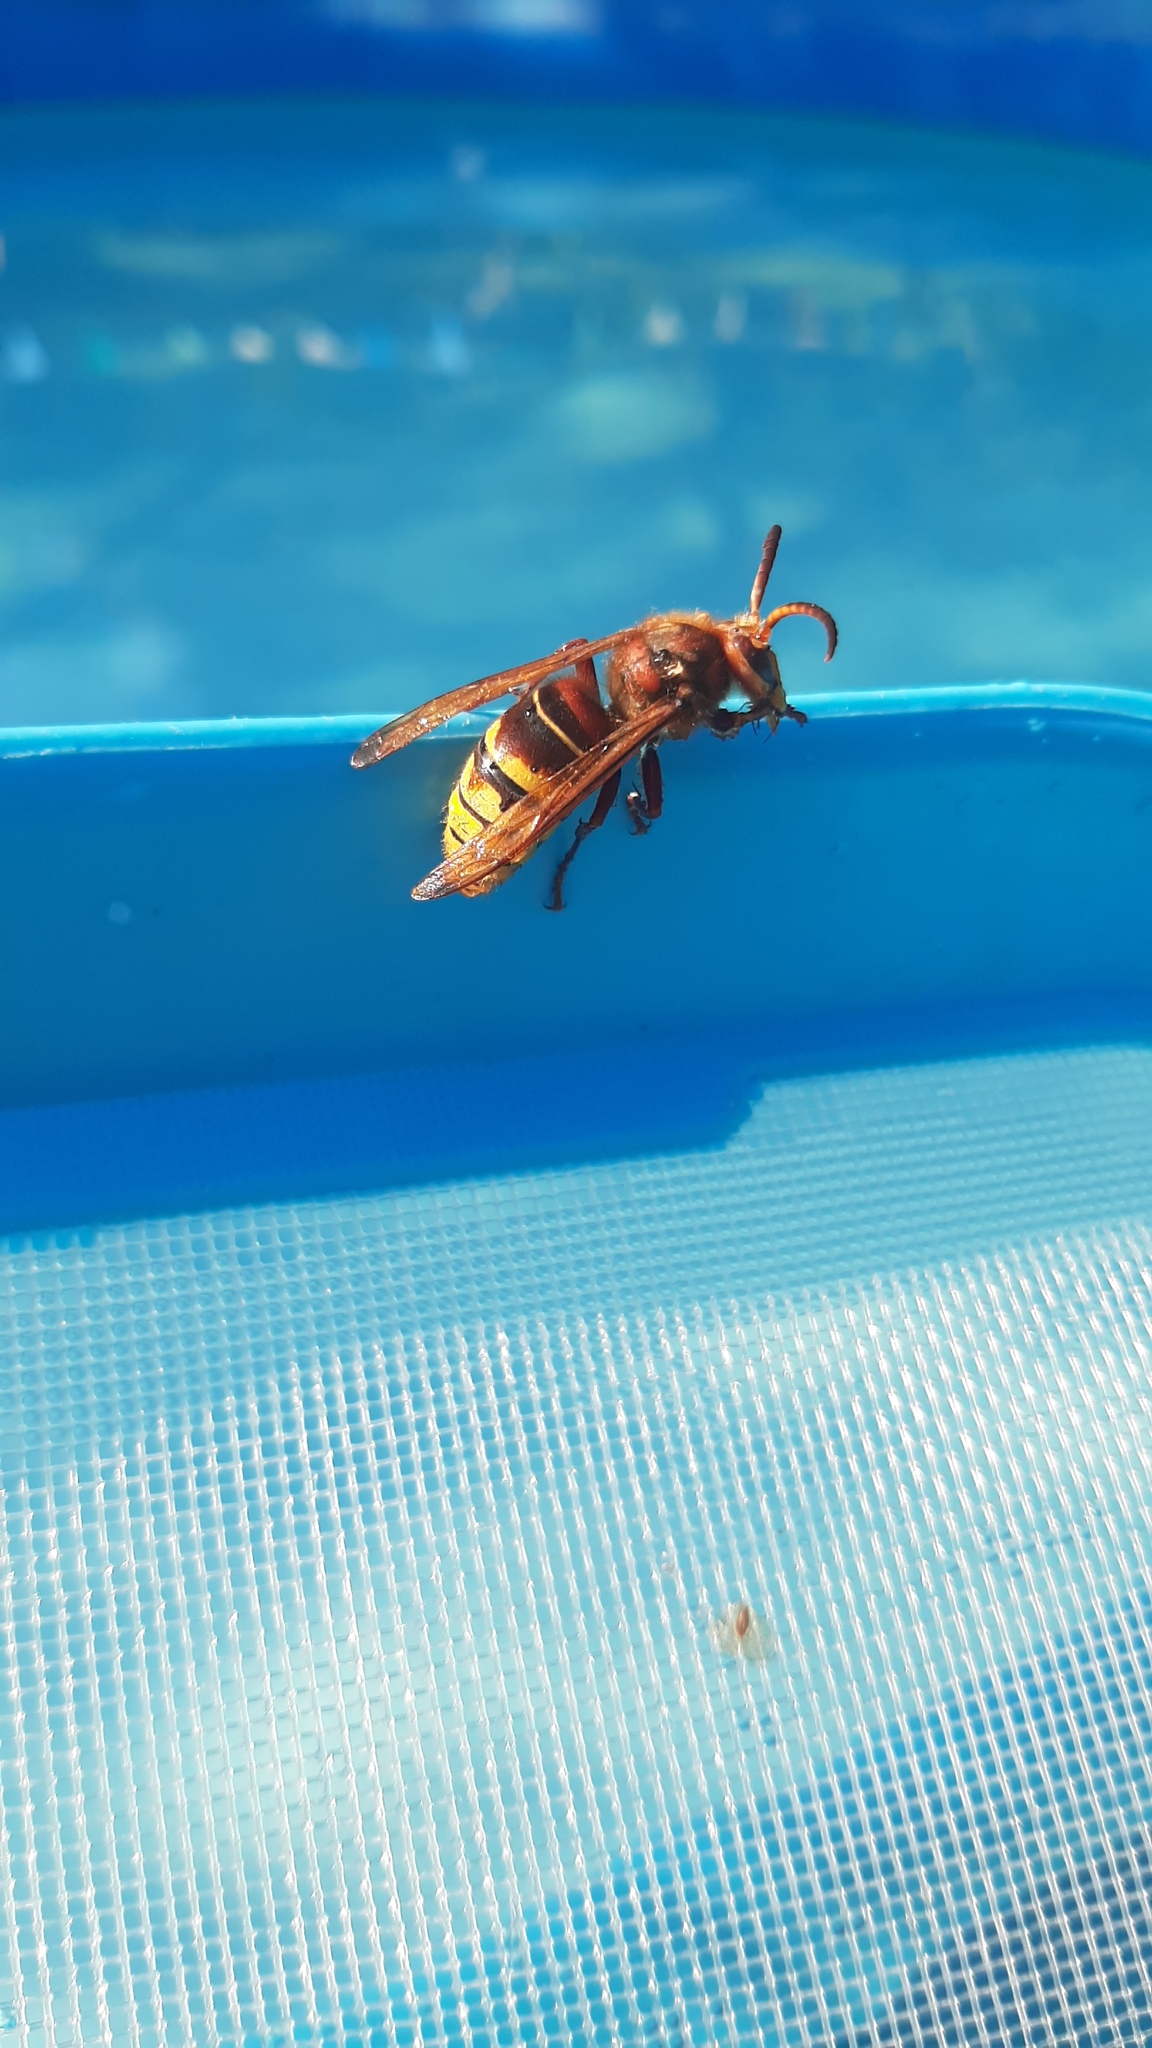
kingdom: Animalia
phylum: Arthropoda
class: Insecta
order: Hymenoptera
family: Vespidae
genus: Vespa
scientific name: Vespa crabro
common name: Hornet
